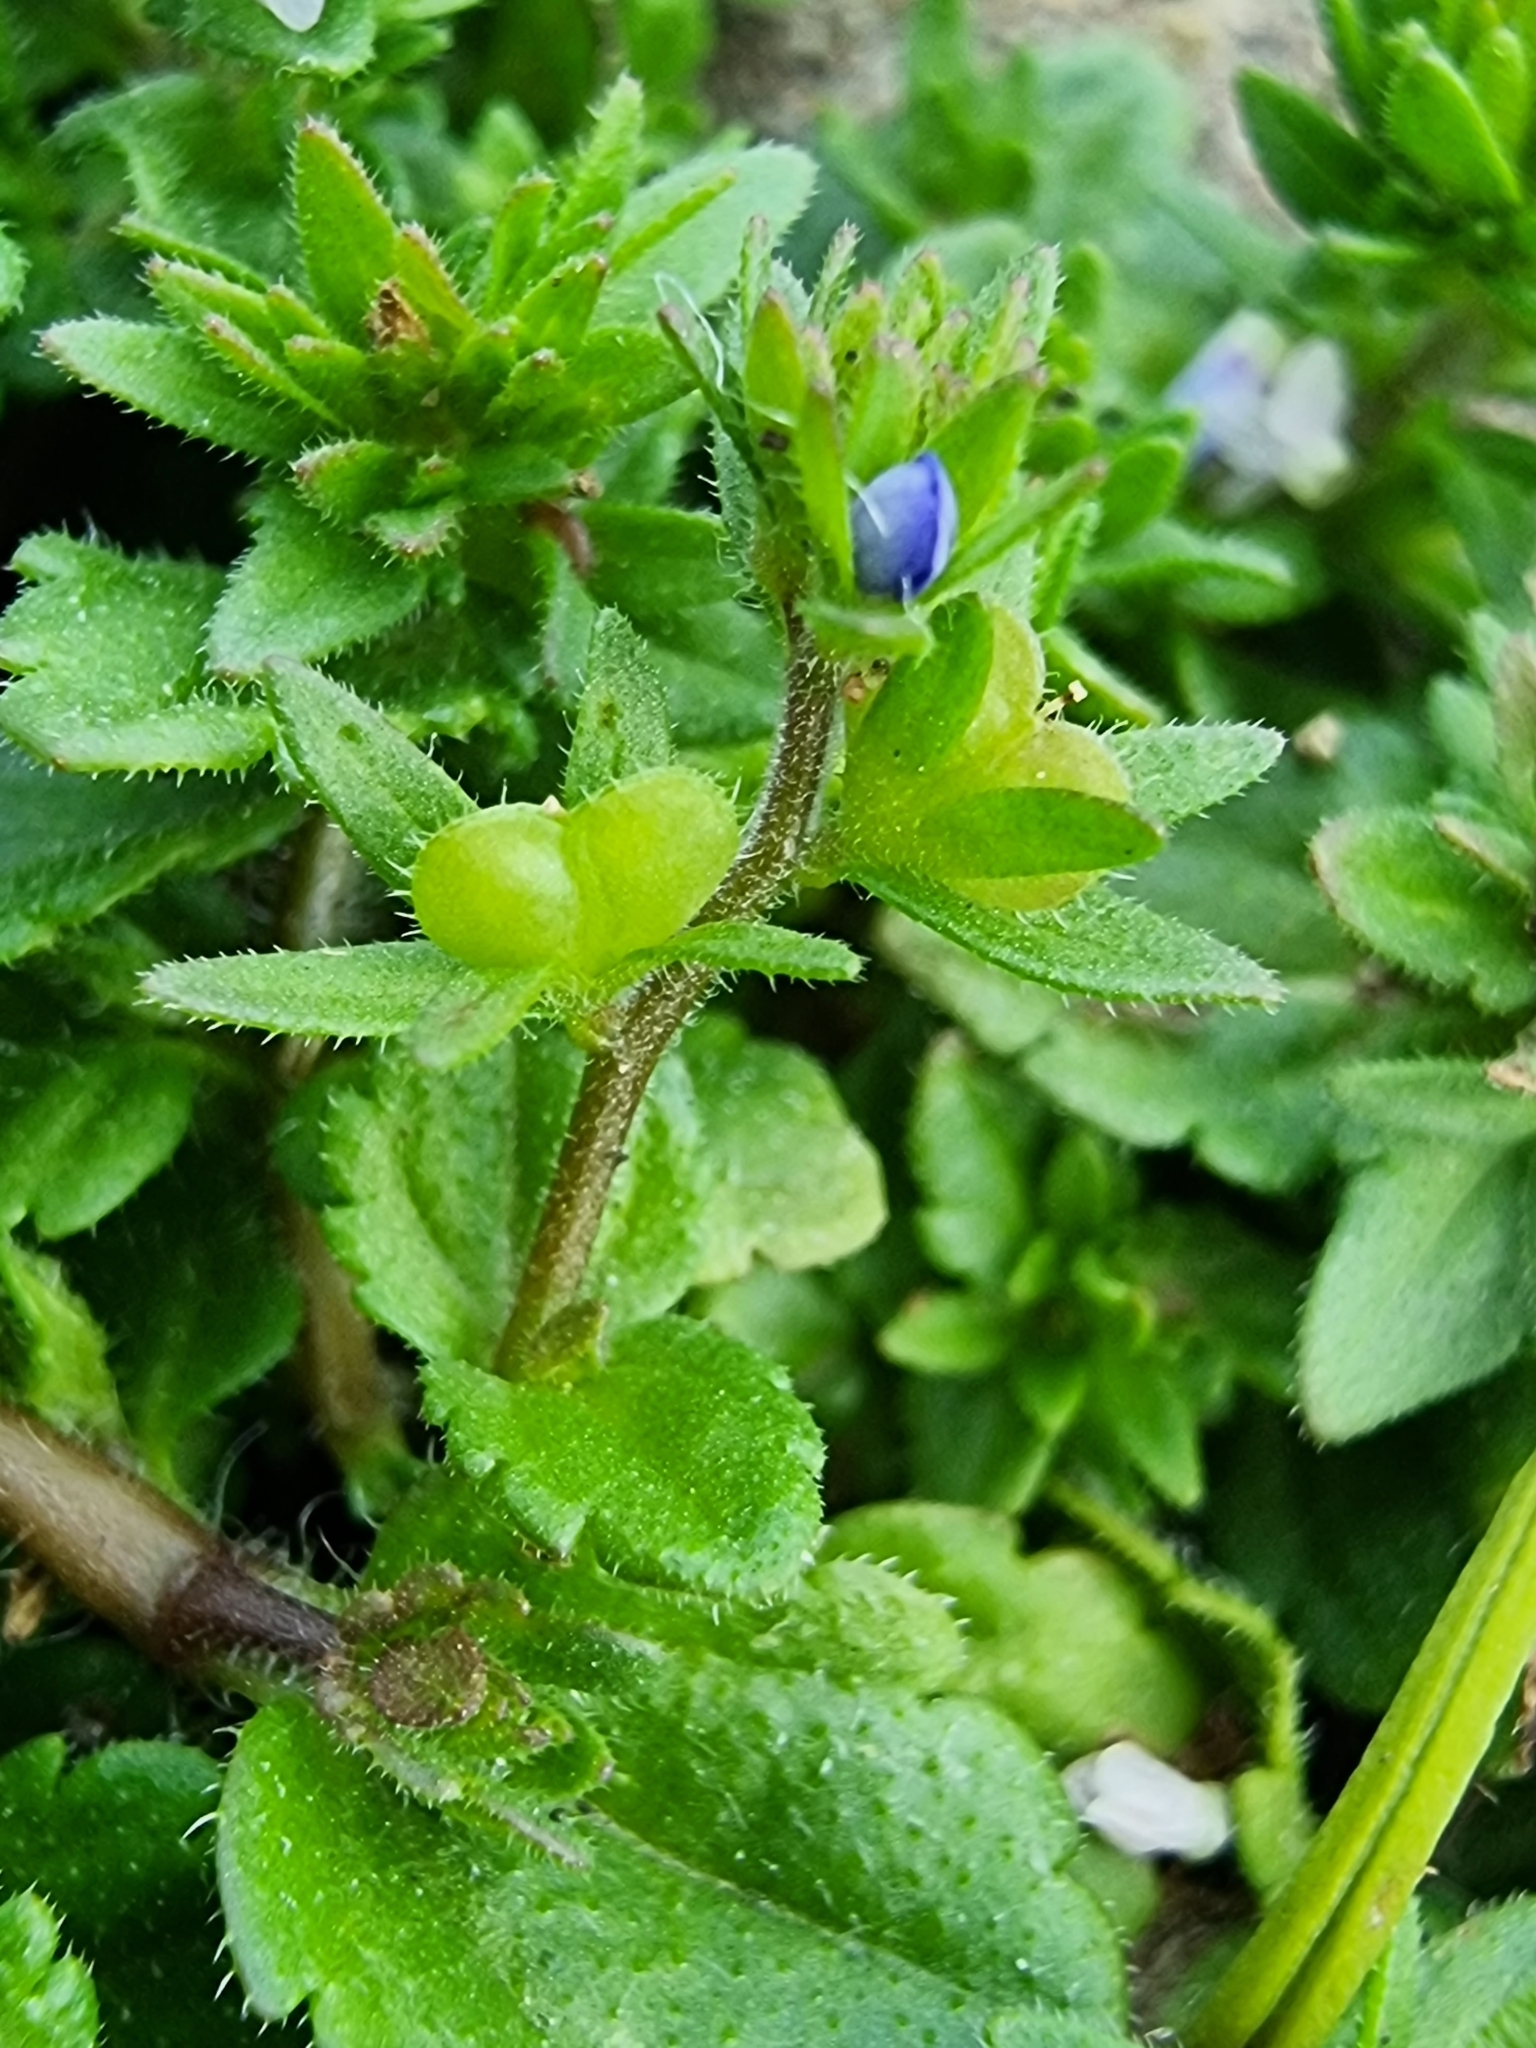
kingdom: Plantae
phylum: Tracheophyta
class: Magnoliopsida
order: Lamiales
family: Plantaginaceae
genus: Veronica
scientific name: Veronica arvensis
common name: Corn speedwell
